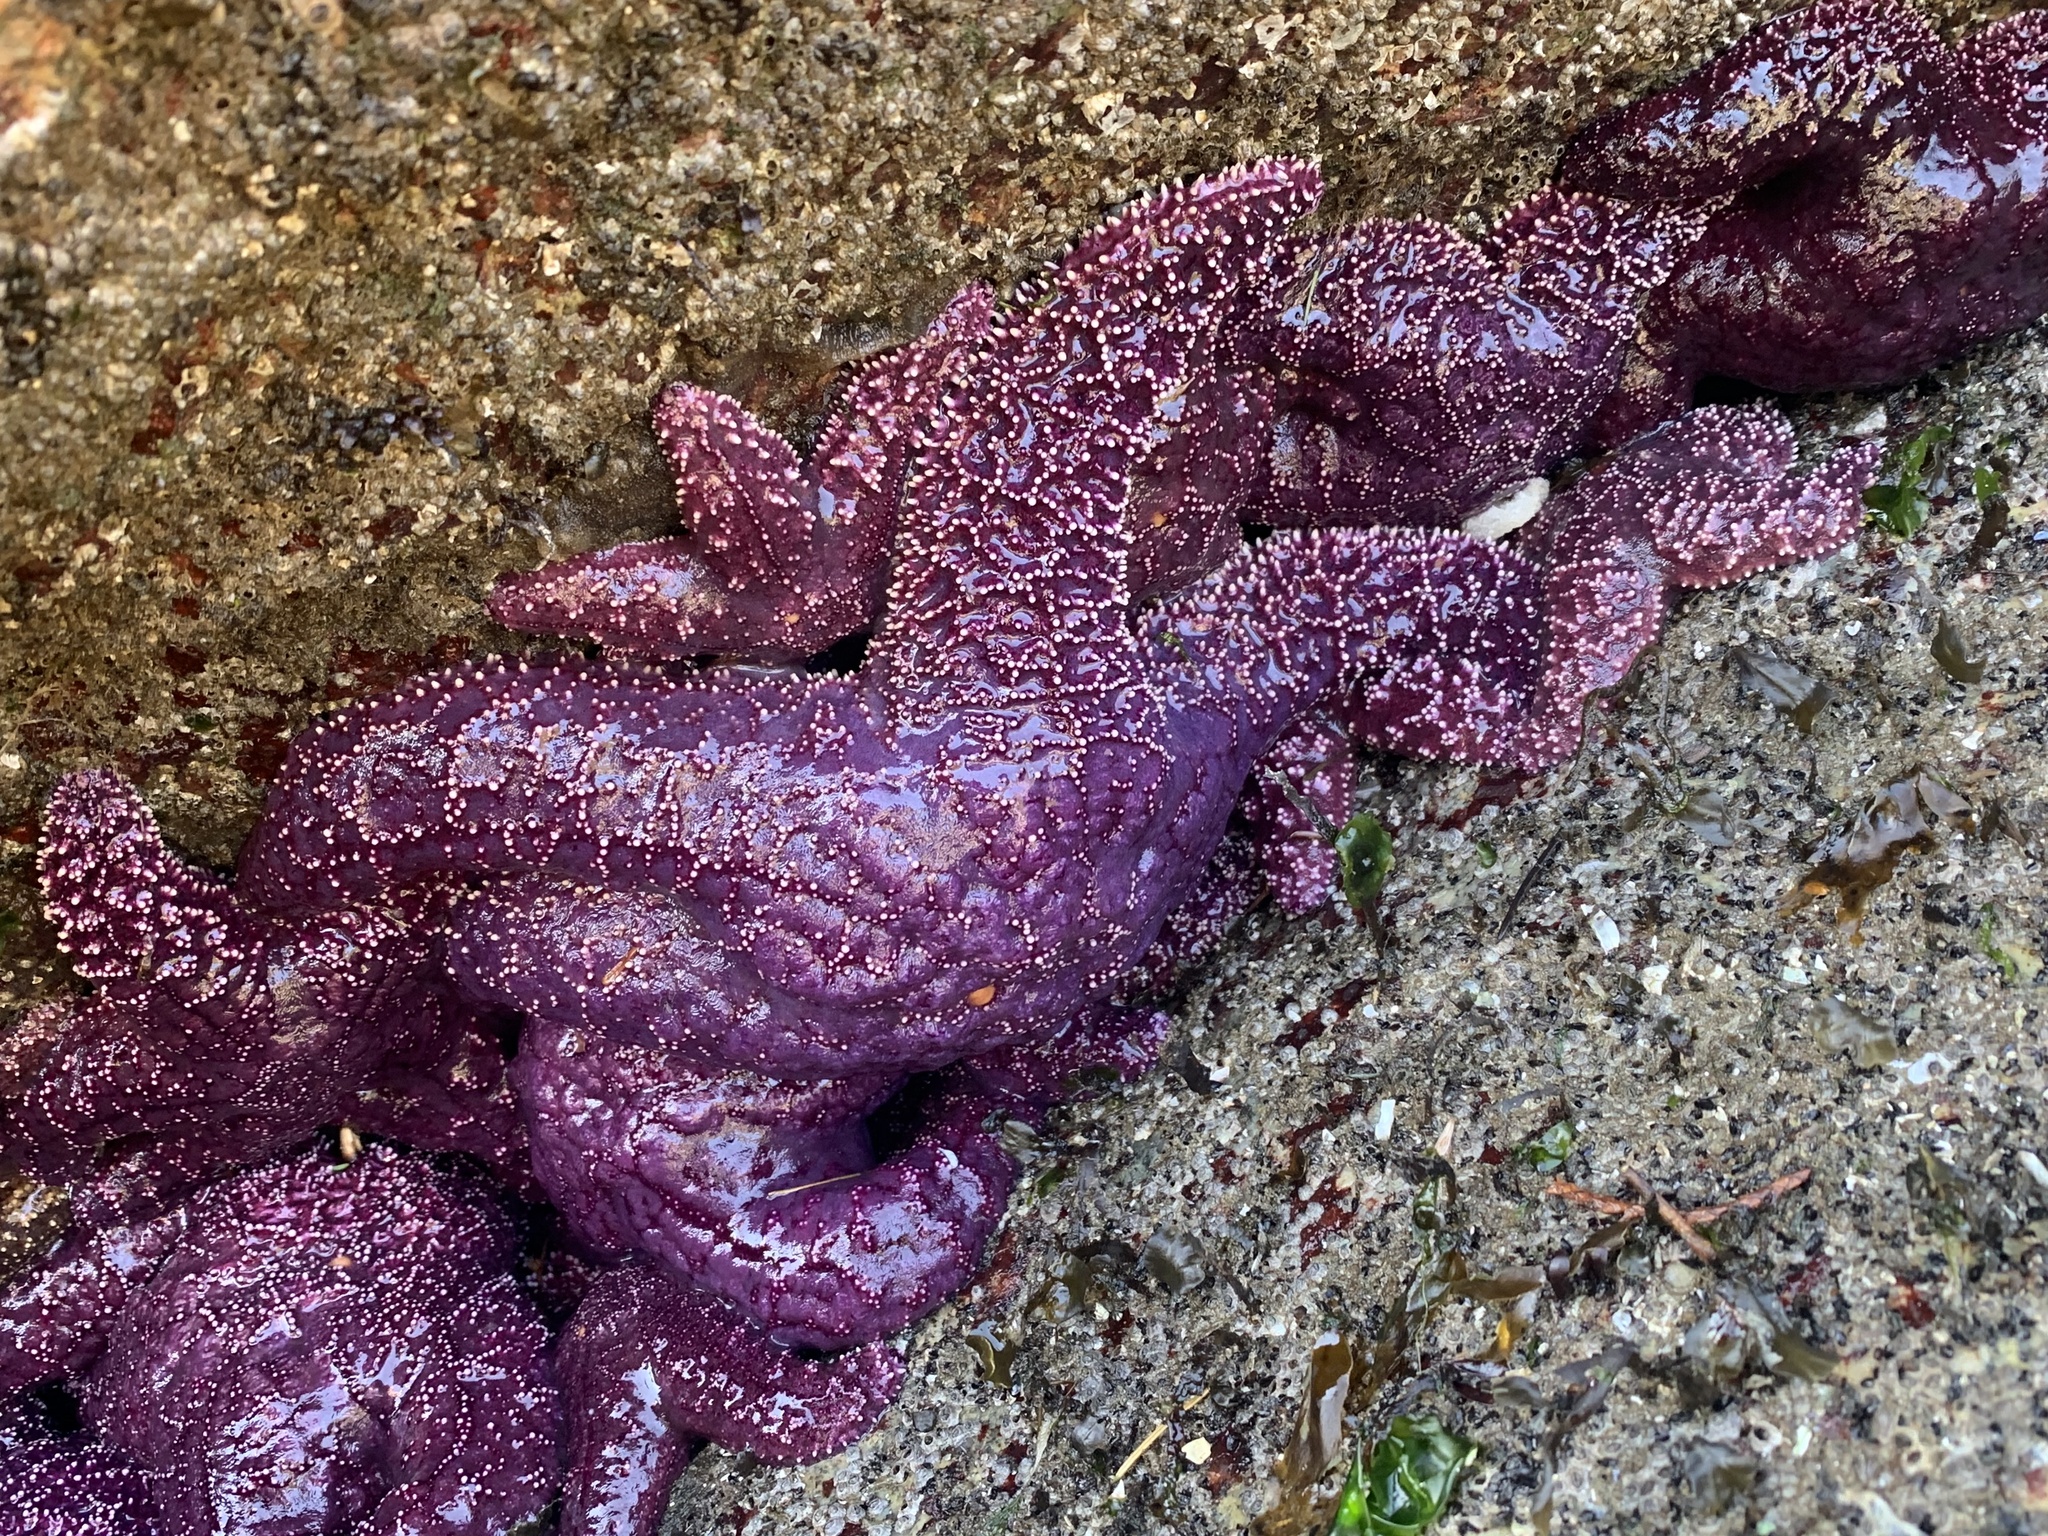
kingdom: Animalia
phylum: Echinodermata
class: Asteroidea
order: Forcipulatida
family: Asteriidae
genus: Pisaster
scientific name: Pisaster ochraceus
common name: Ochre stars
